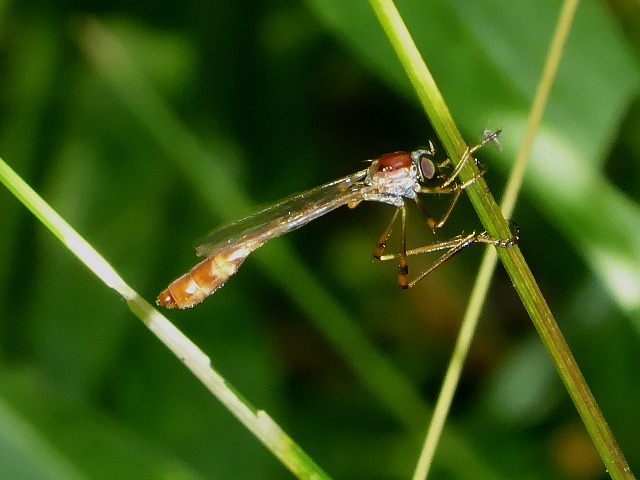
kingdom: Animalia
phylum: Arthropoda
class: Insecta
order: Diptera
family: Asilidae
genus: Tipulogaster
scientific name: Tipulogaster glabrata
